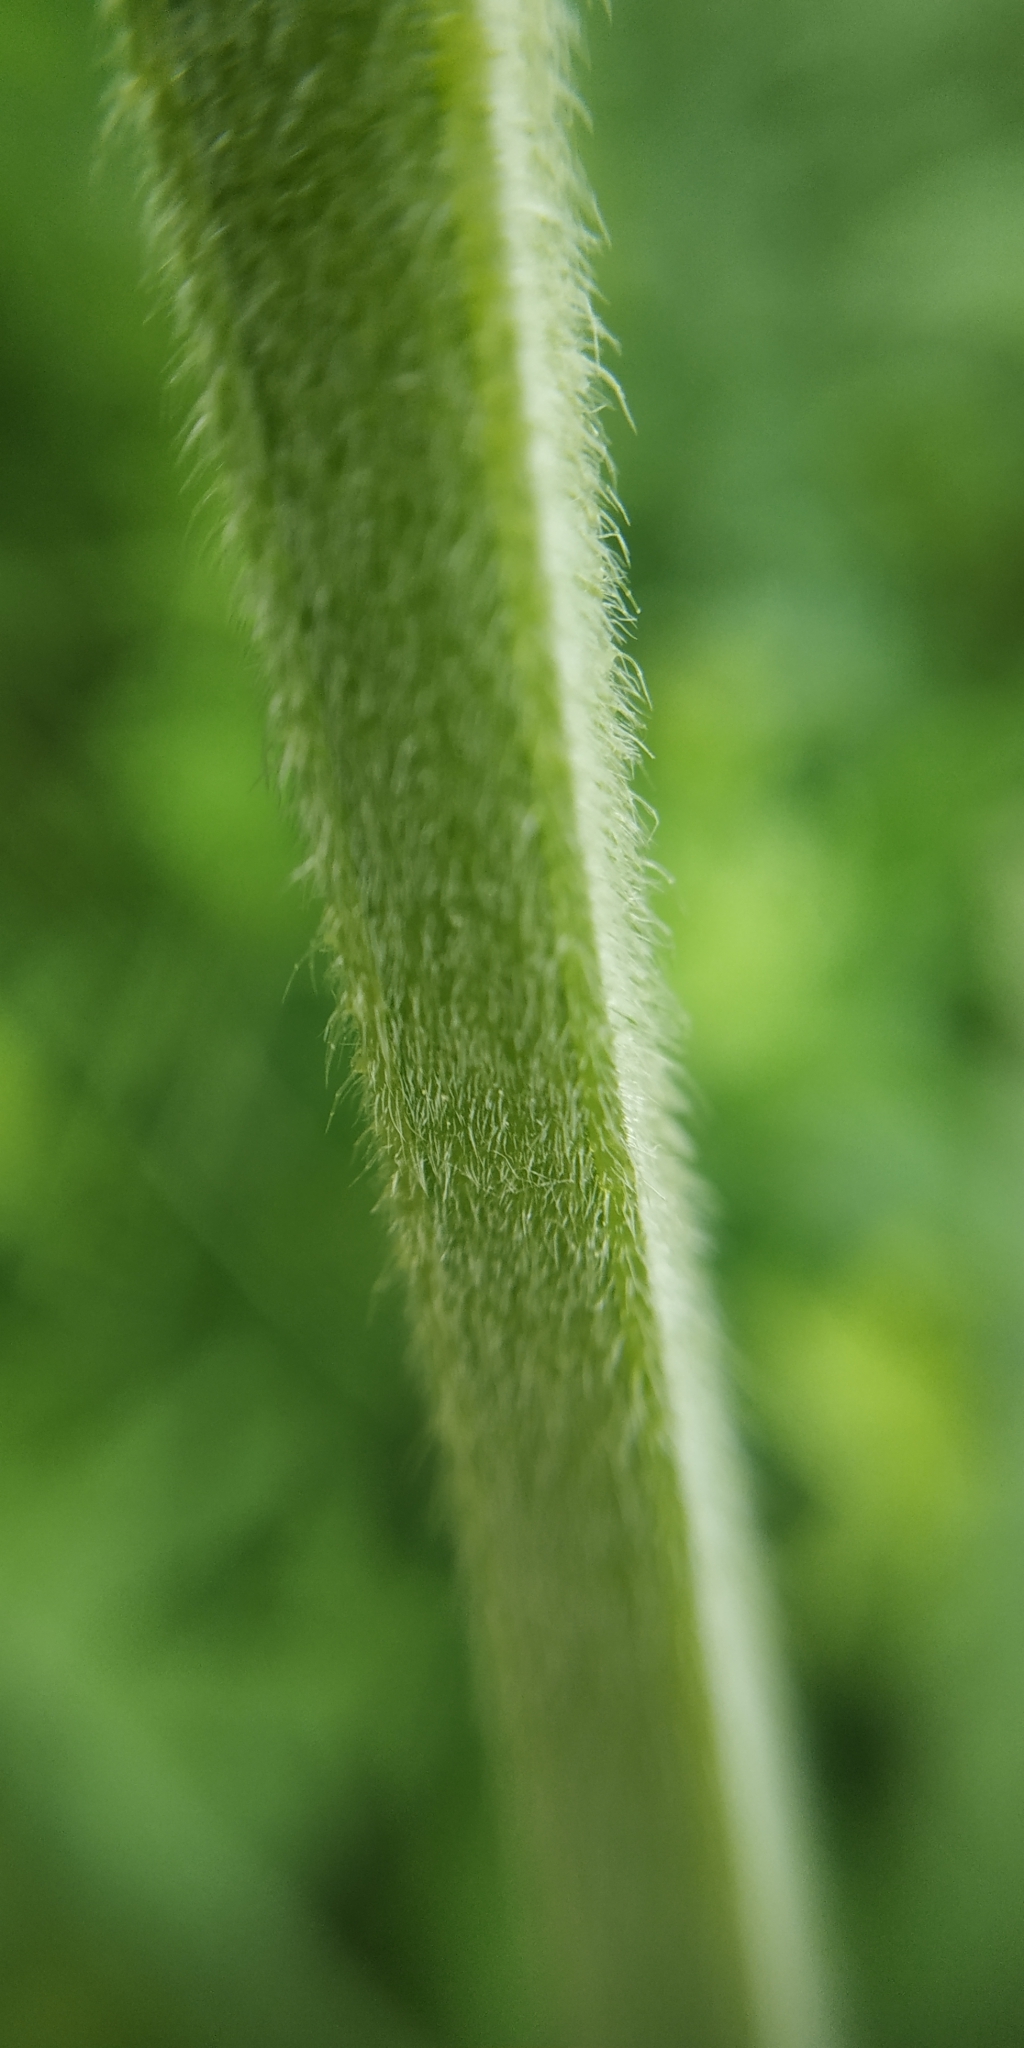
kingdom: Plantae
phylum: Tracheophyta
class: Magnoliopsida
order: Lamiales
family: Lamiaceae
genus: Stachys
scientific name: Stachys palustris
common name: Marsh woundwort
